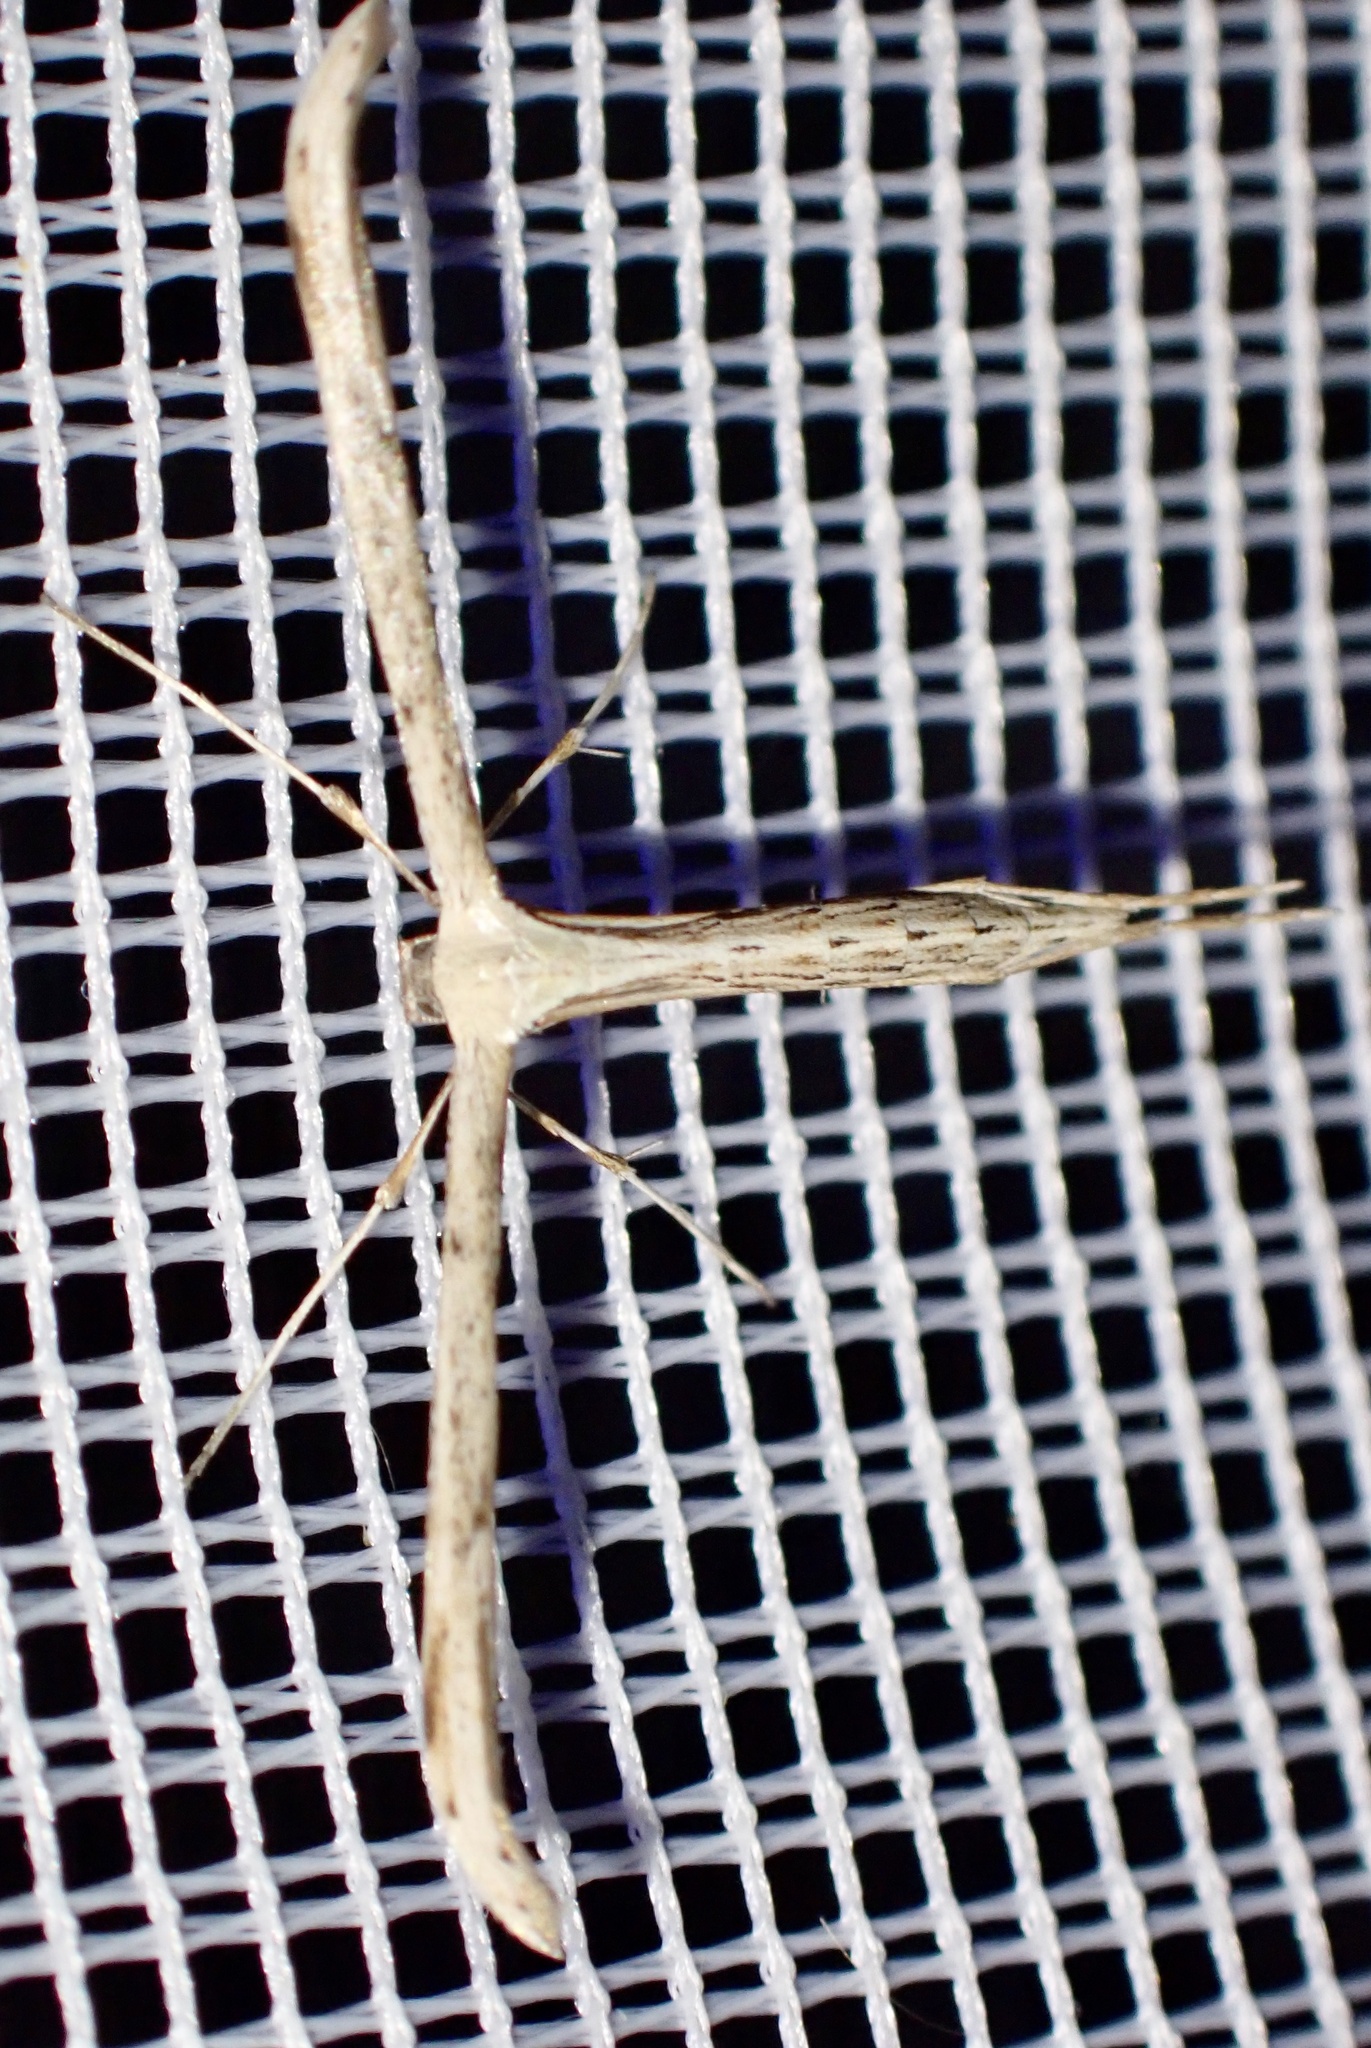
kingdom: Animalia
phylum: Arthropoda
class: Insecta
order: Lepidoptera
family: Pterophoridae
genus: Emmelina
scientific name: Emmelina monodactyla
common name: Common plume
